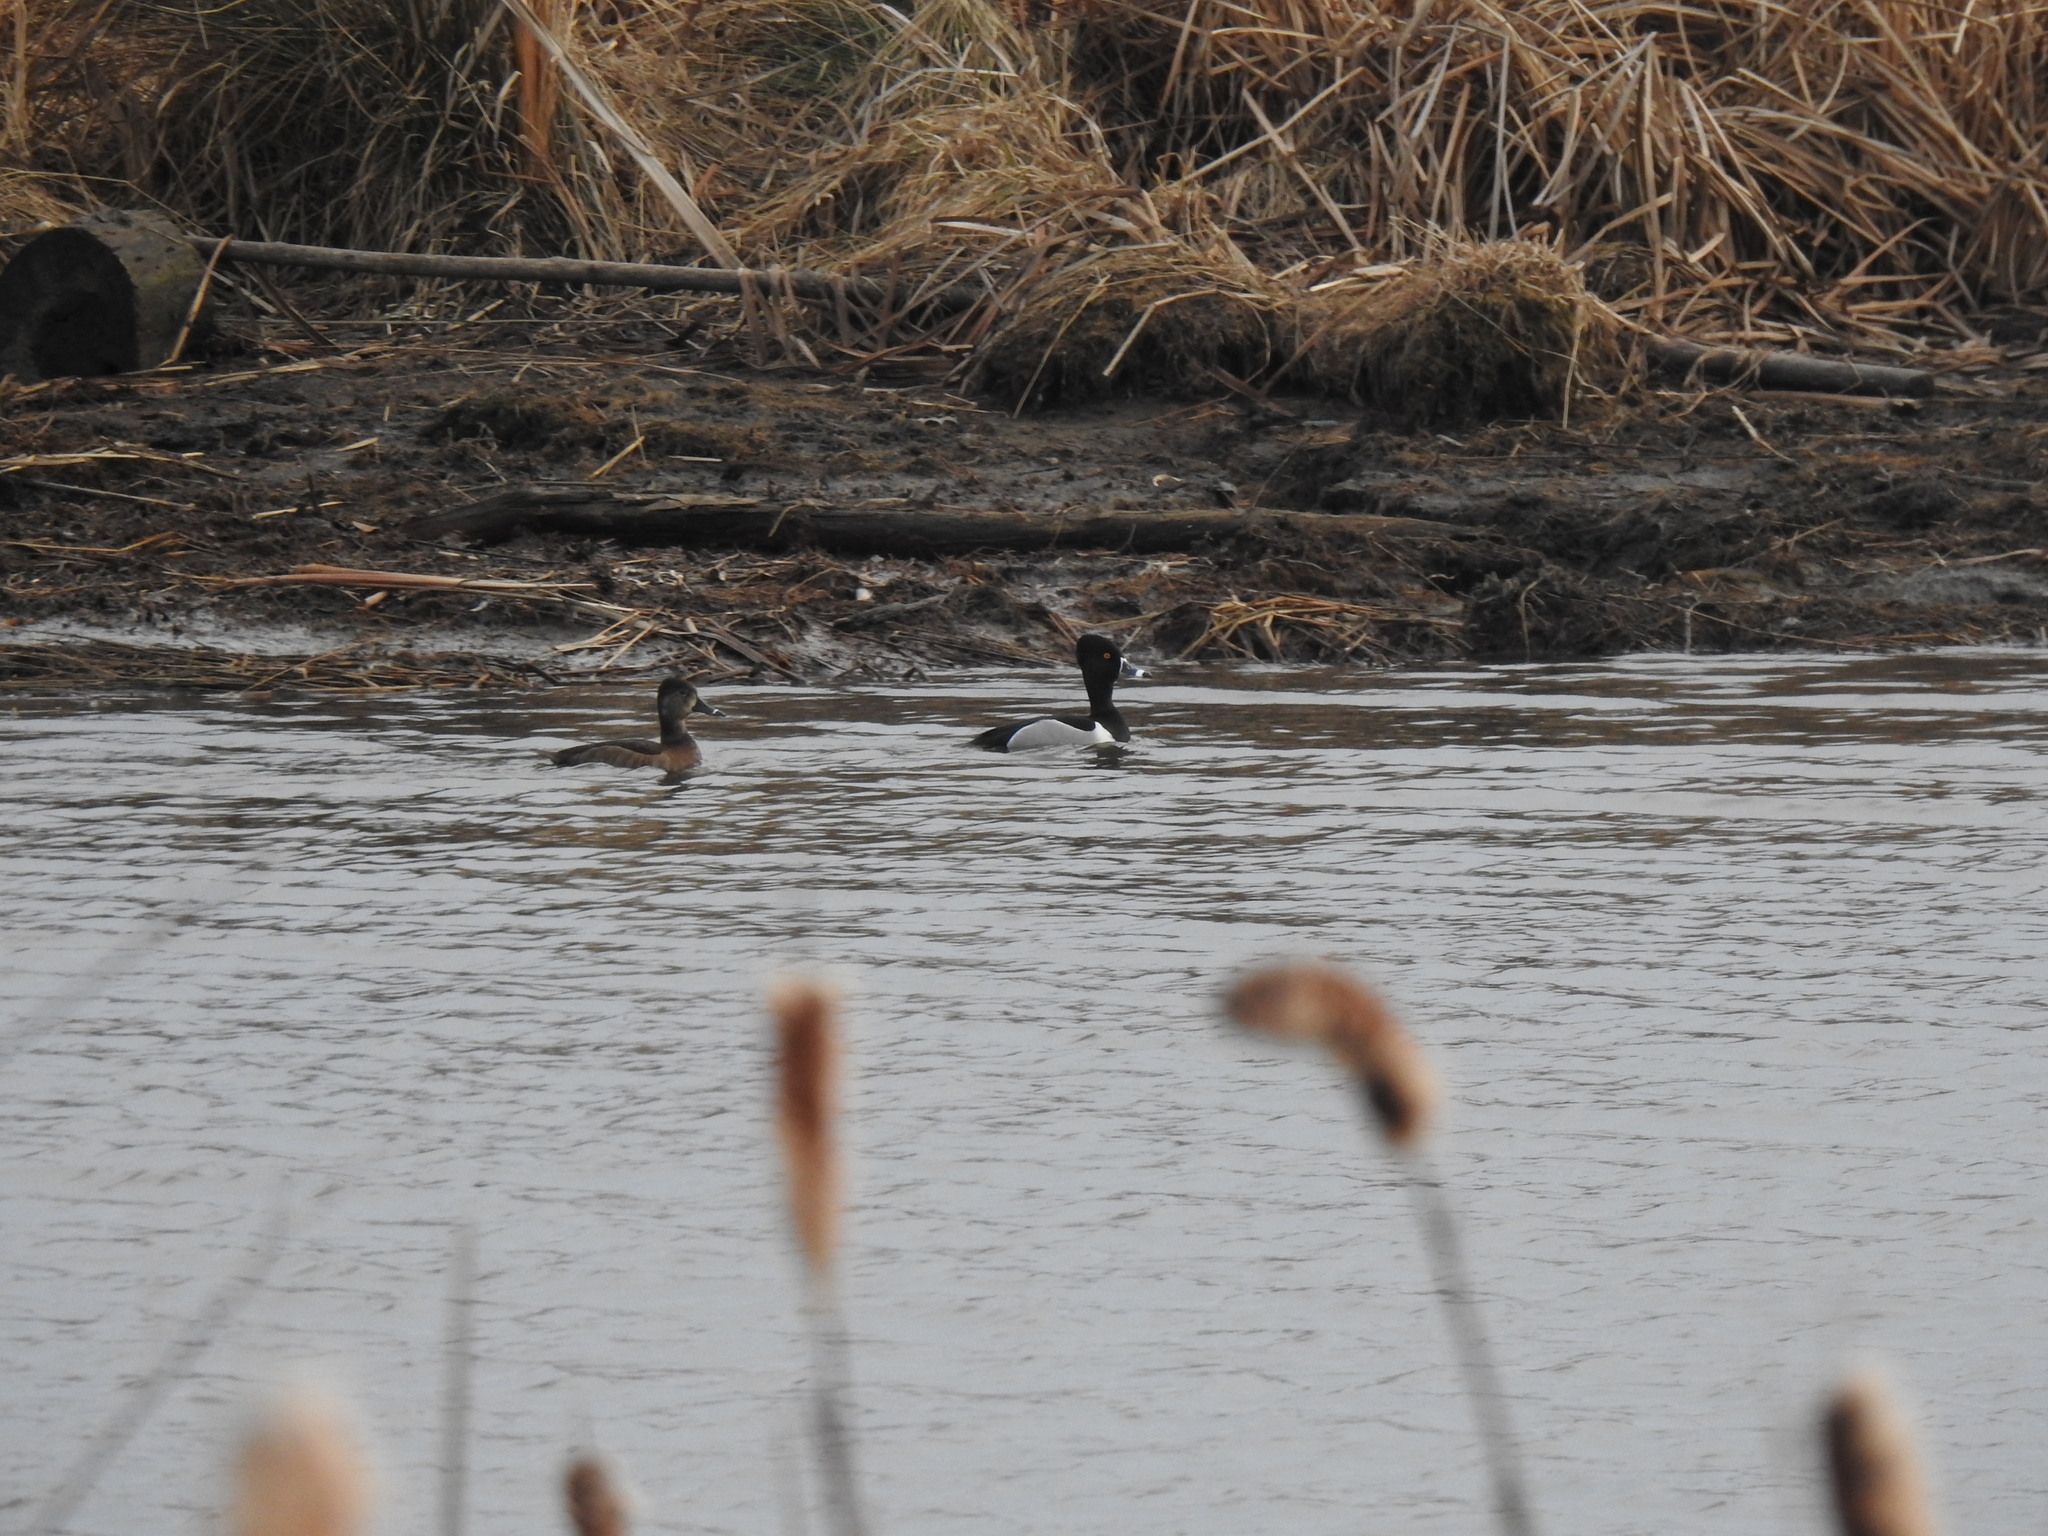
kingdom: Animalia
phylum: Chordata
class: Aves
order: Anseriformes
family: Anatidae
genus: Aythya
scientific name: Aythya collaris
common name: Ring-necked duck
